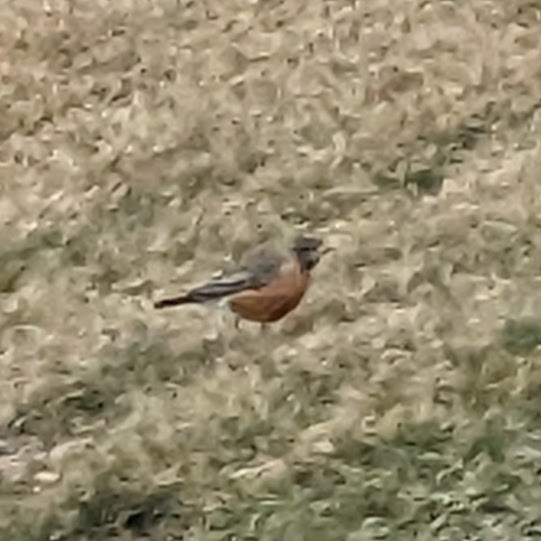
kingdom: Animalia
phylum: Chordata
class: Aves
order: Passeriformes
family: Turdidae
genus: Turdus
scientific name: Turdus migratorius
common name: American robin
